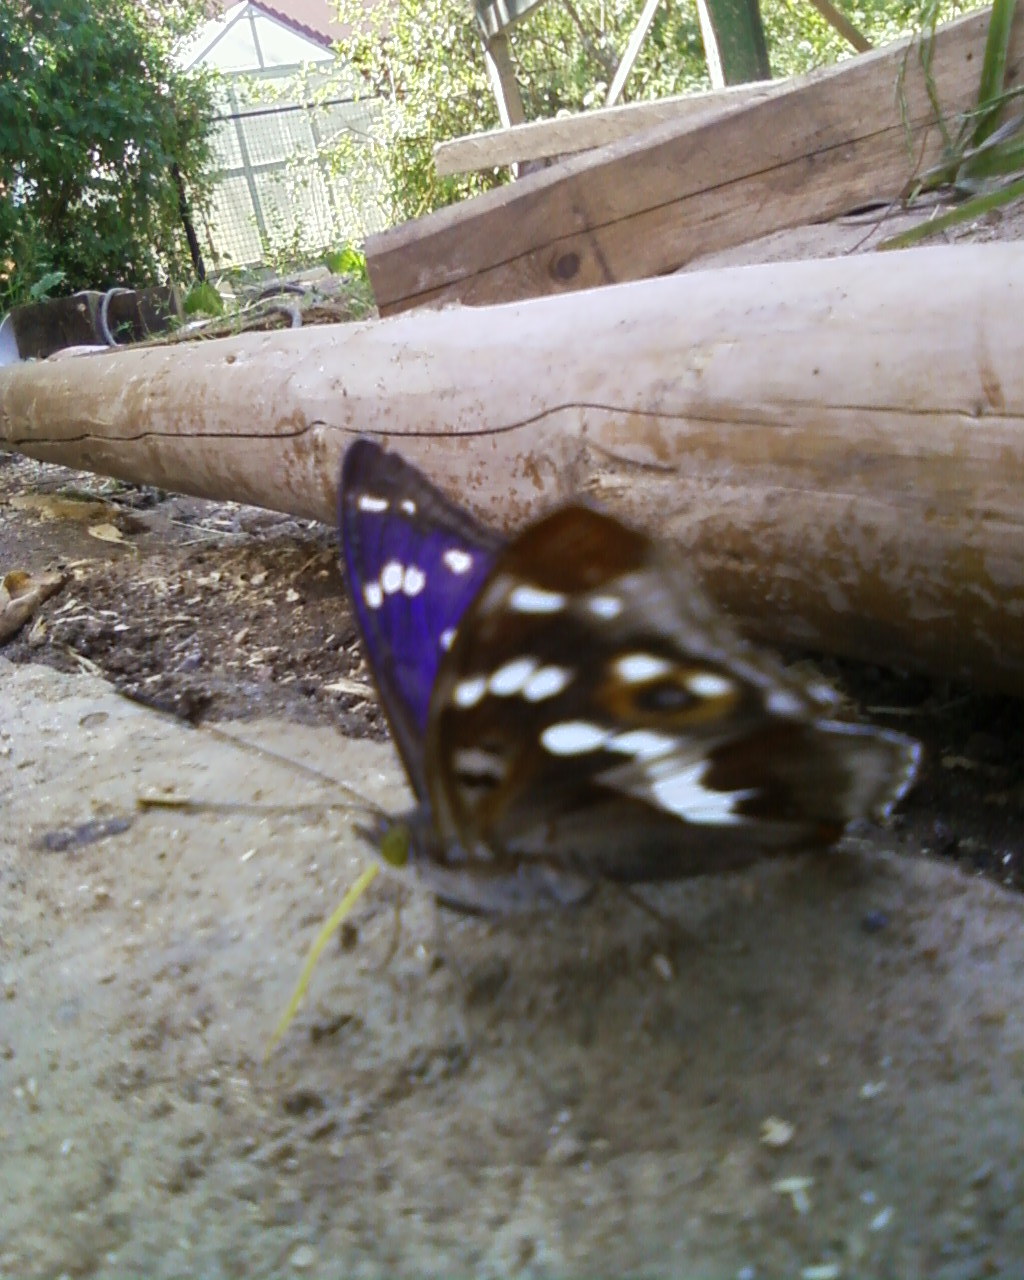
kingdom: Animalia
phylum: Arthropoda
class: Insecta
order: Lepidoptera
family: Nymphalidae
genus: Apatura
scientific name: Apatura iris
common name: Purple emperor
